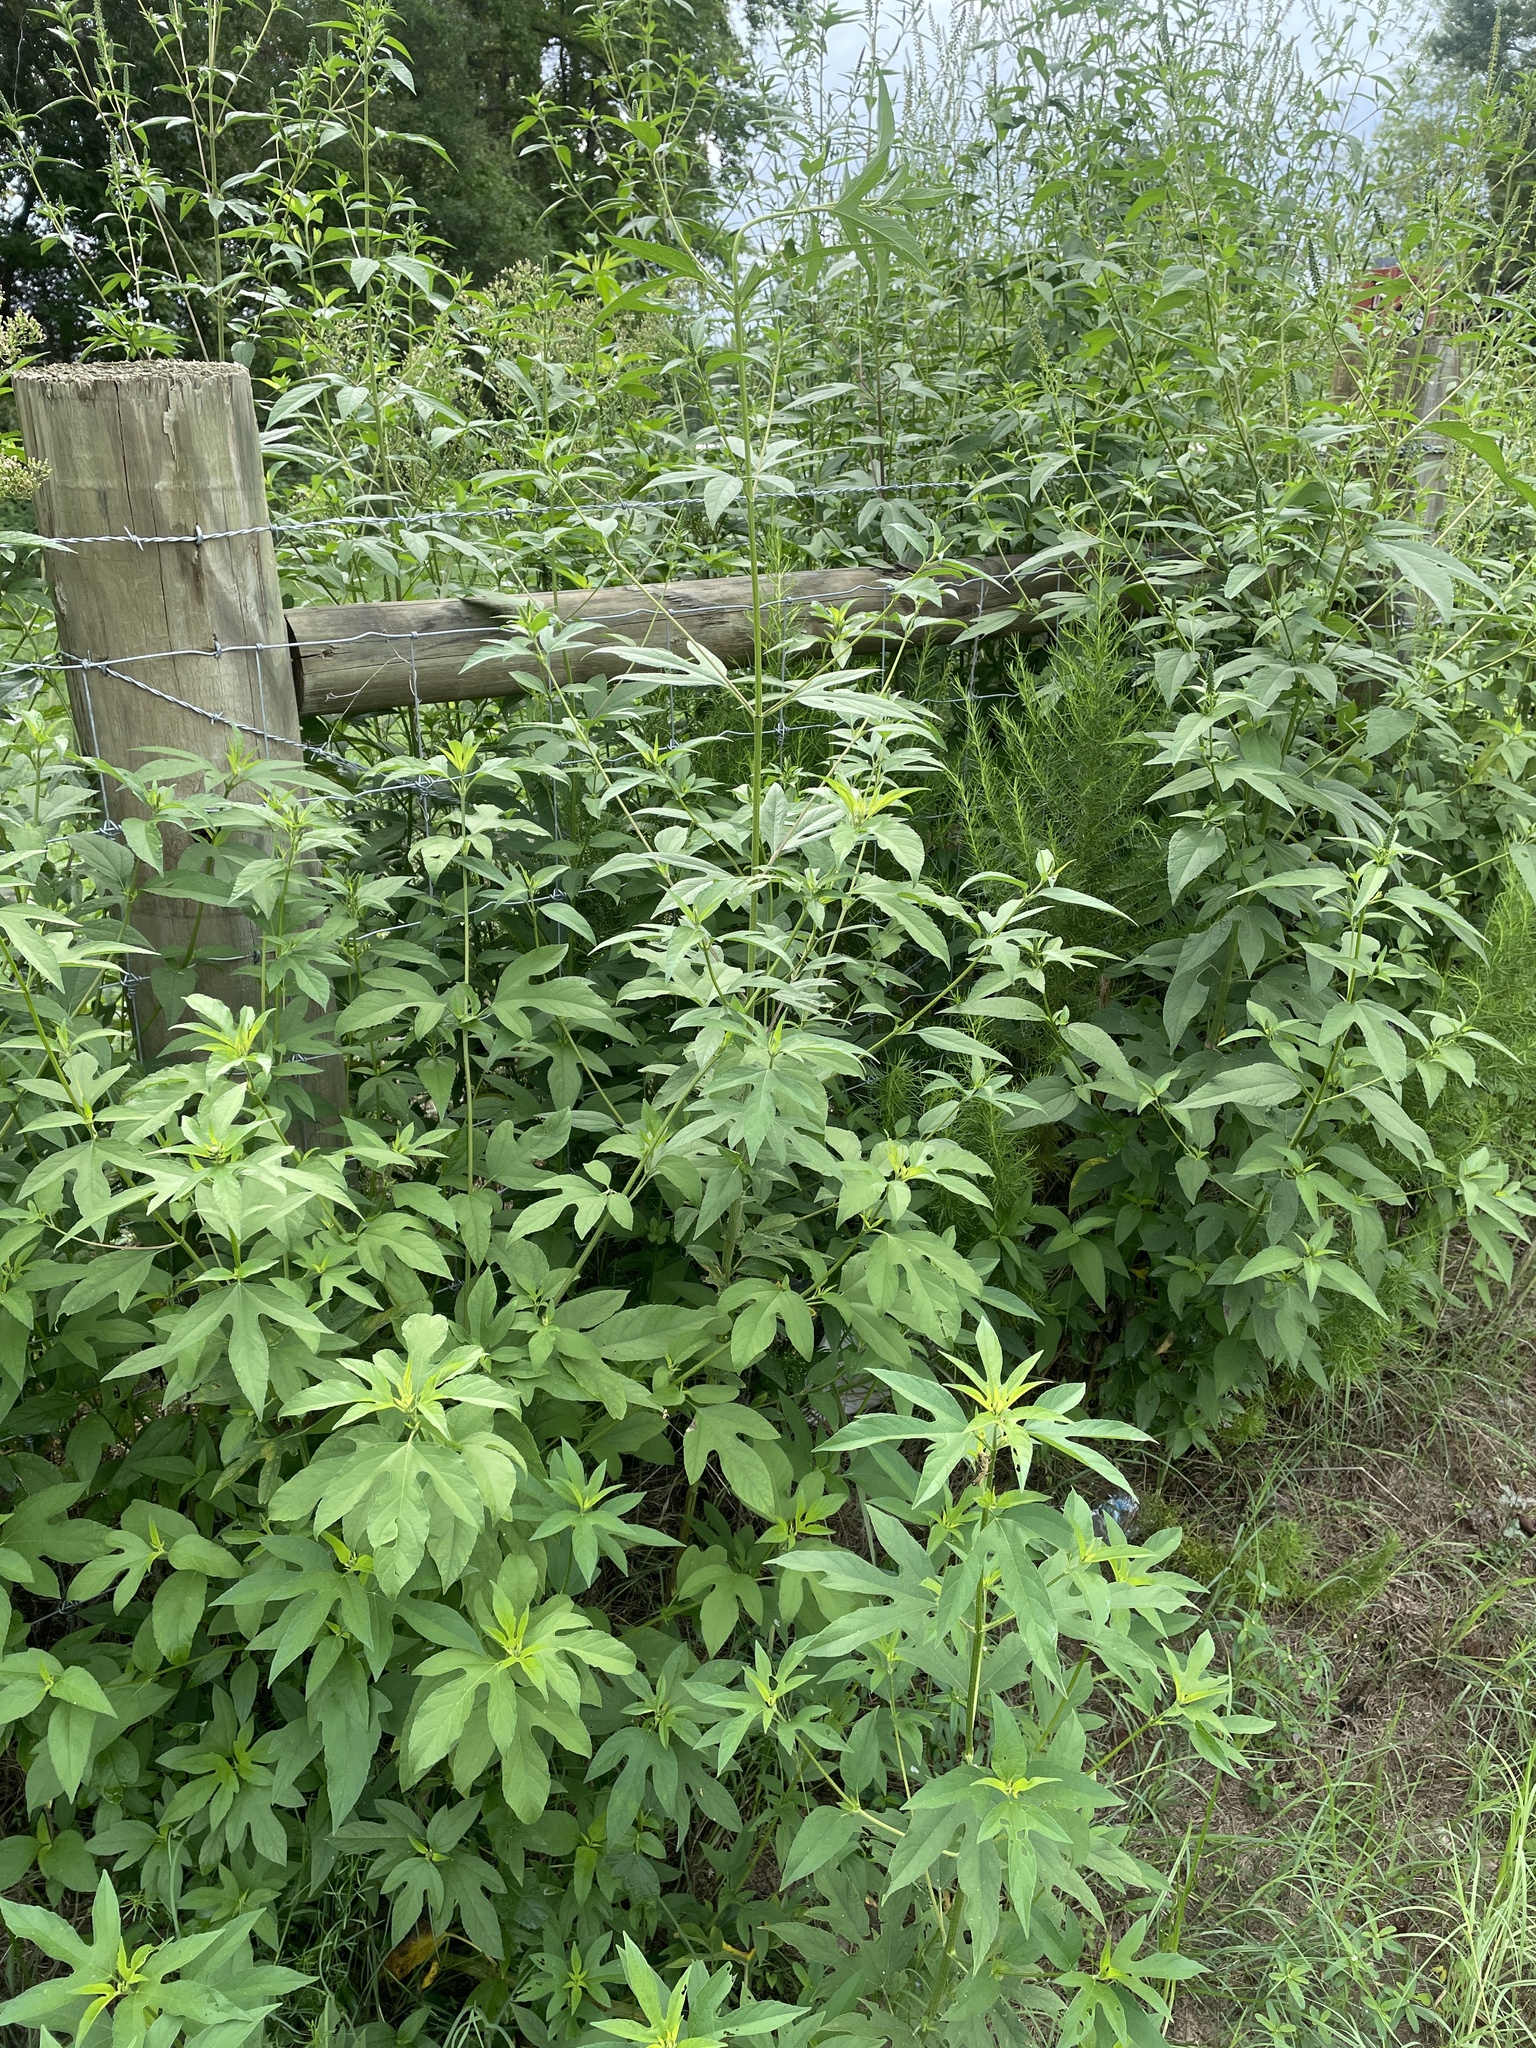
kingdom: Plantae
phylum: Tracheophyta
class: Magnoliopsida
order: Asterales
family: Asteraceae
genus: Ambrosia
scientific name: Ambrosia trifida
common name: Giant ragweed
